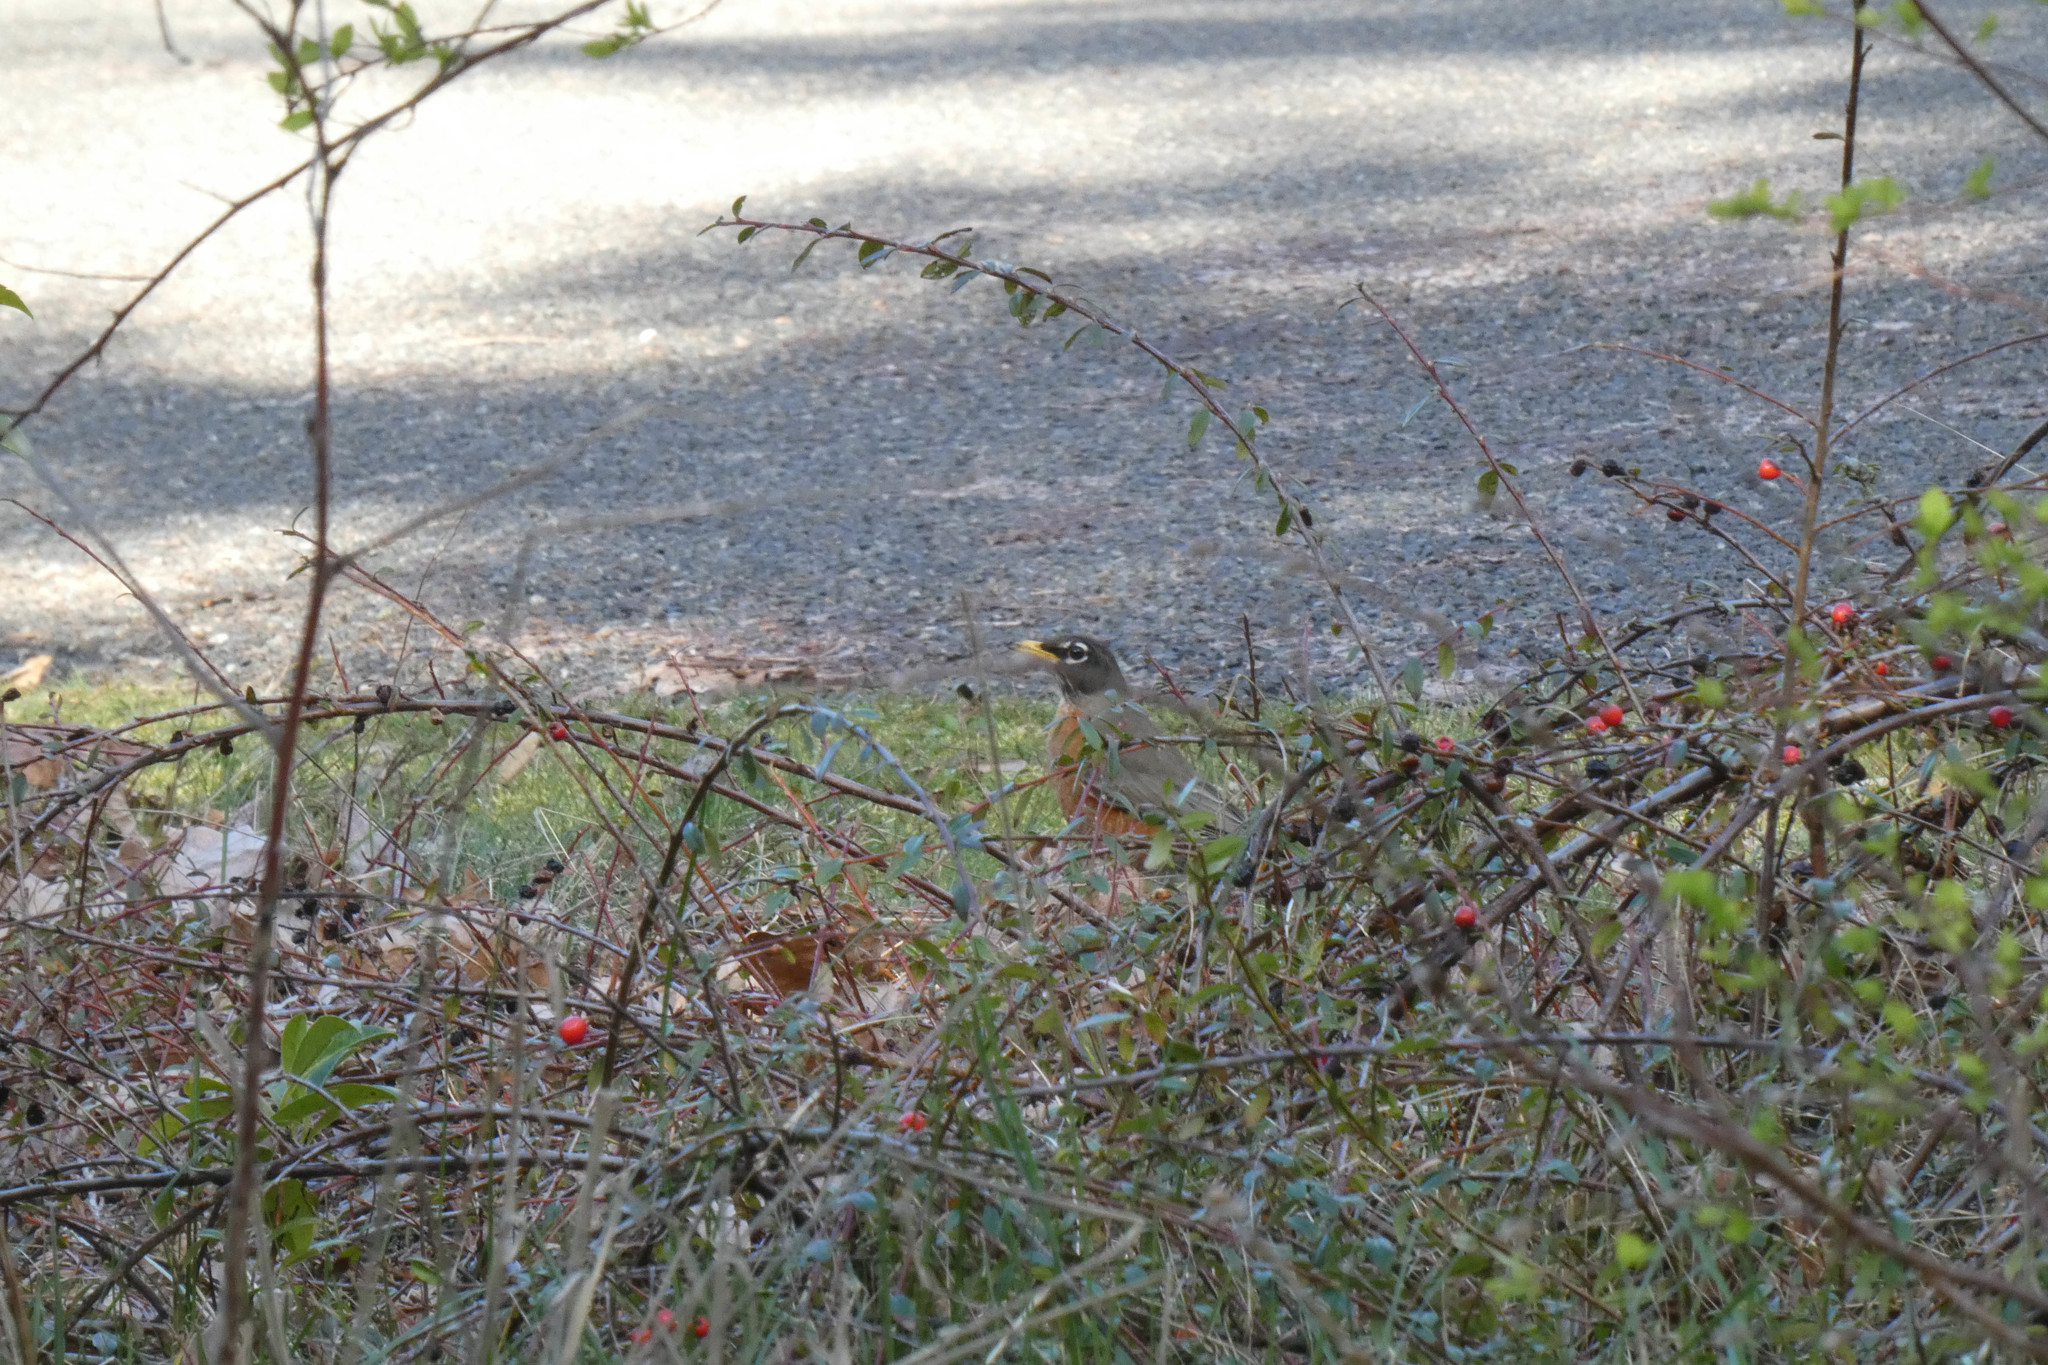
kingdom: Animalia
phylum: Chordata
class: Aves
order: Passeriformes
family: Turdidae
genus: Turdus
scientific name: Turdus migratorius
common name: American robin
